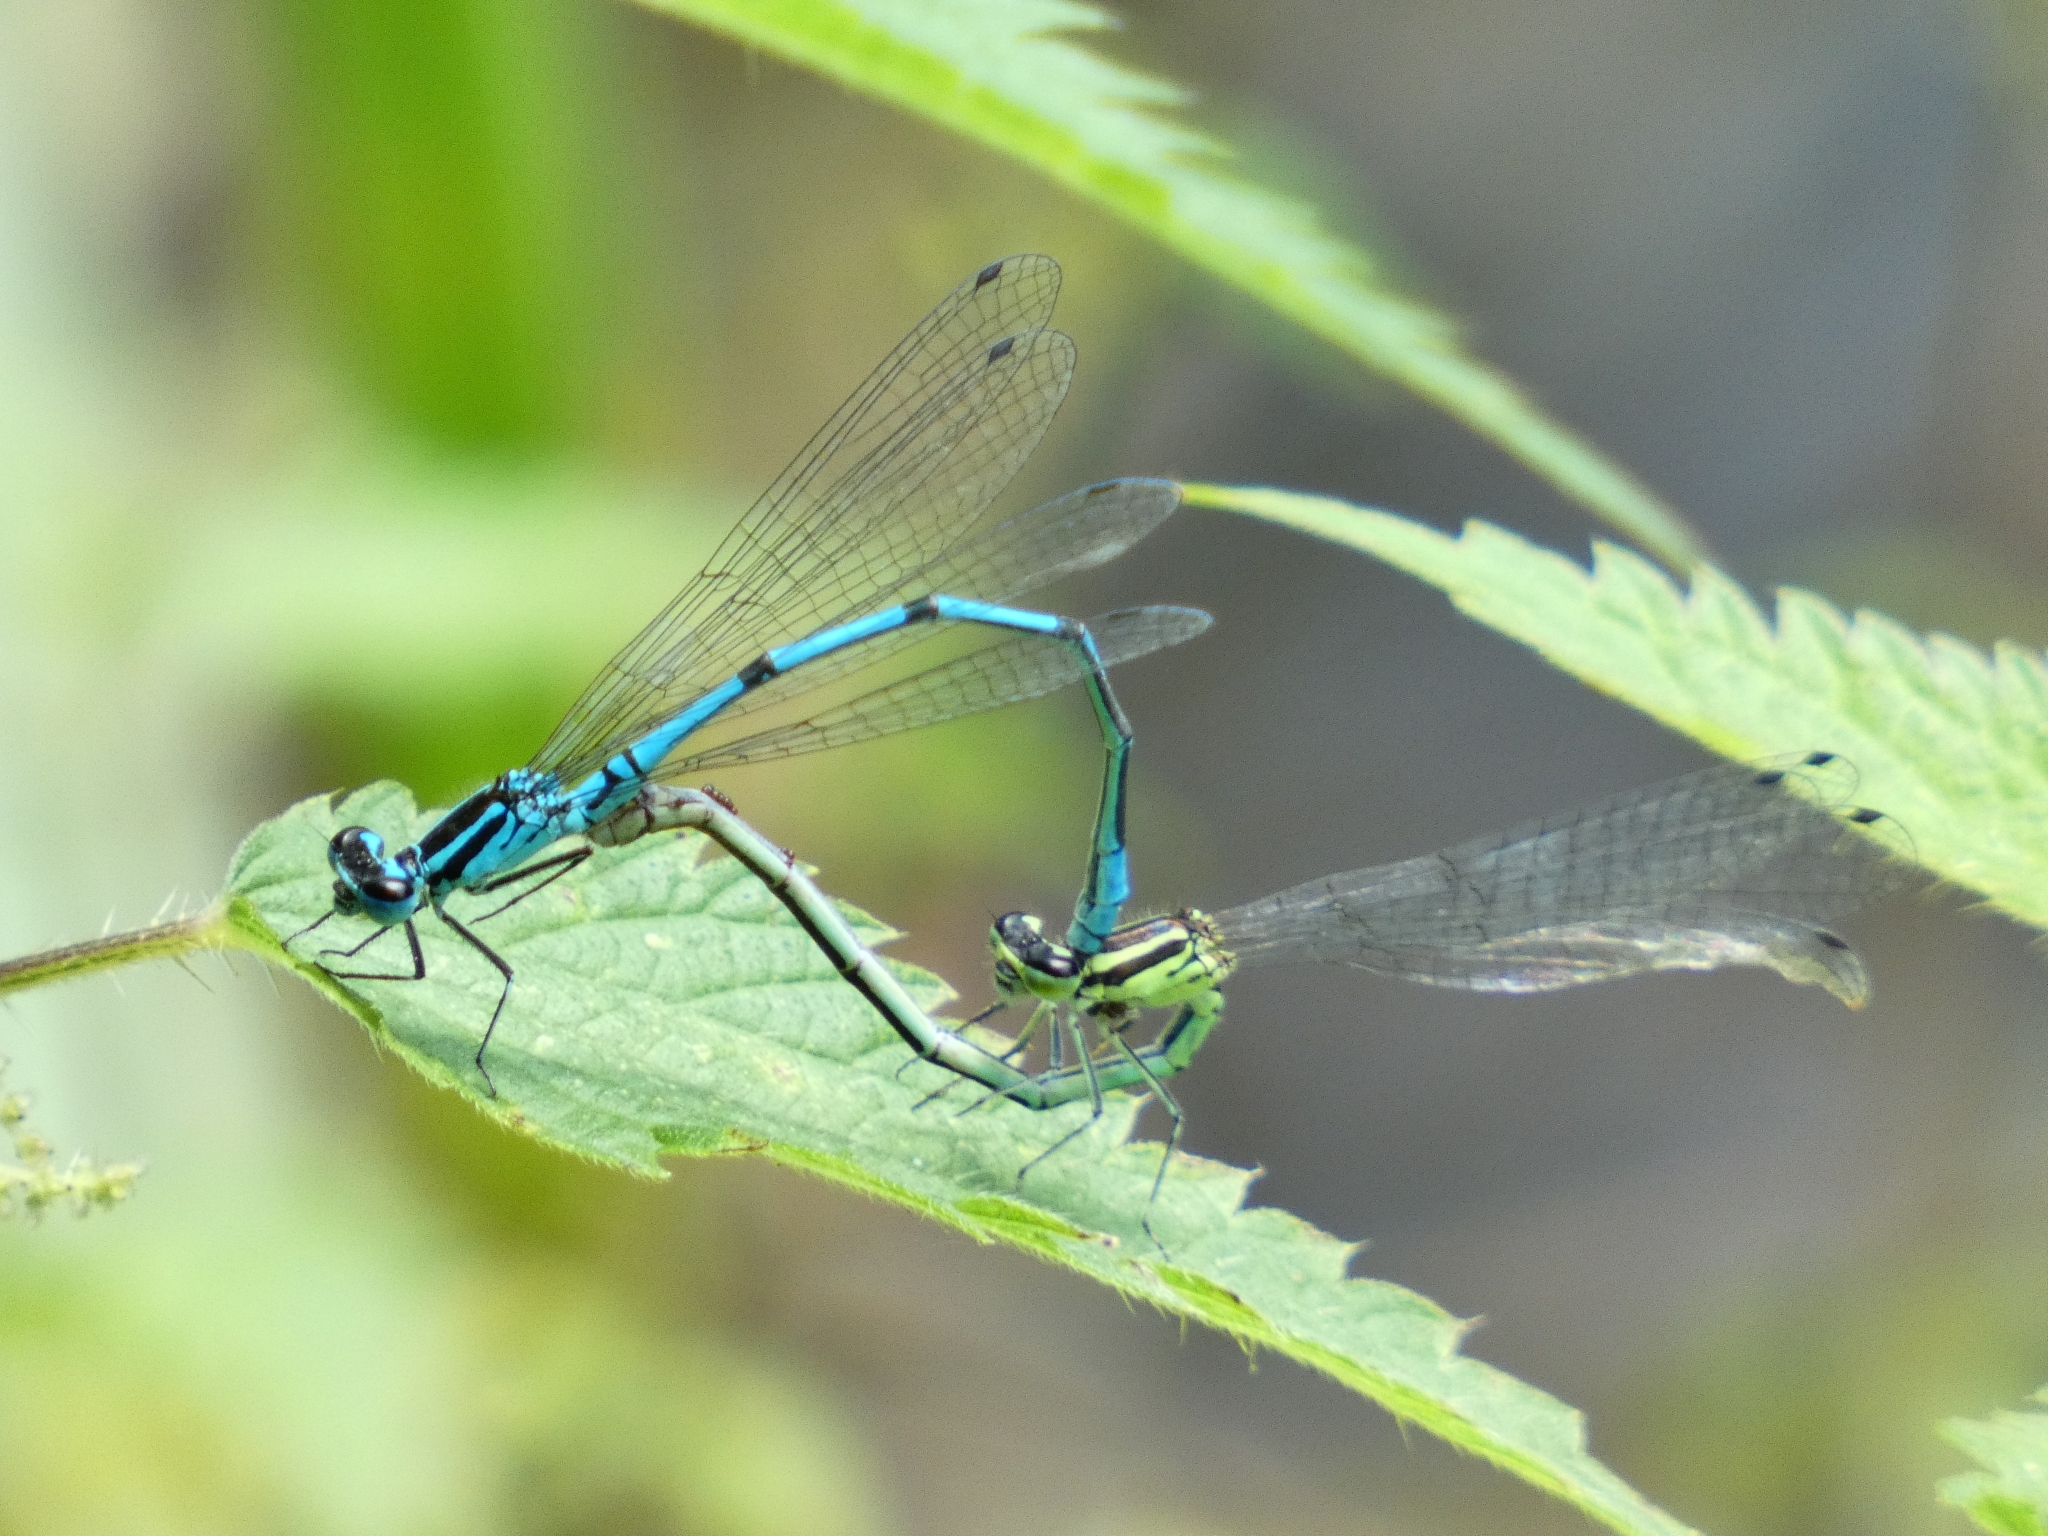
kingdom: Animalia
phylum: Arthropoda
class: Insecta
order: Odonata
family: Coenagrionidae
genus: Coenagrion
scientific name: Coenagrion puella
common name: Azure damselfly
